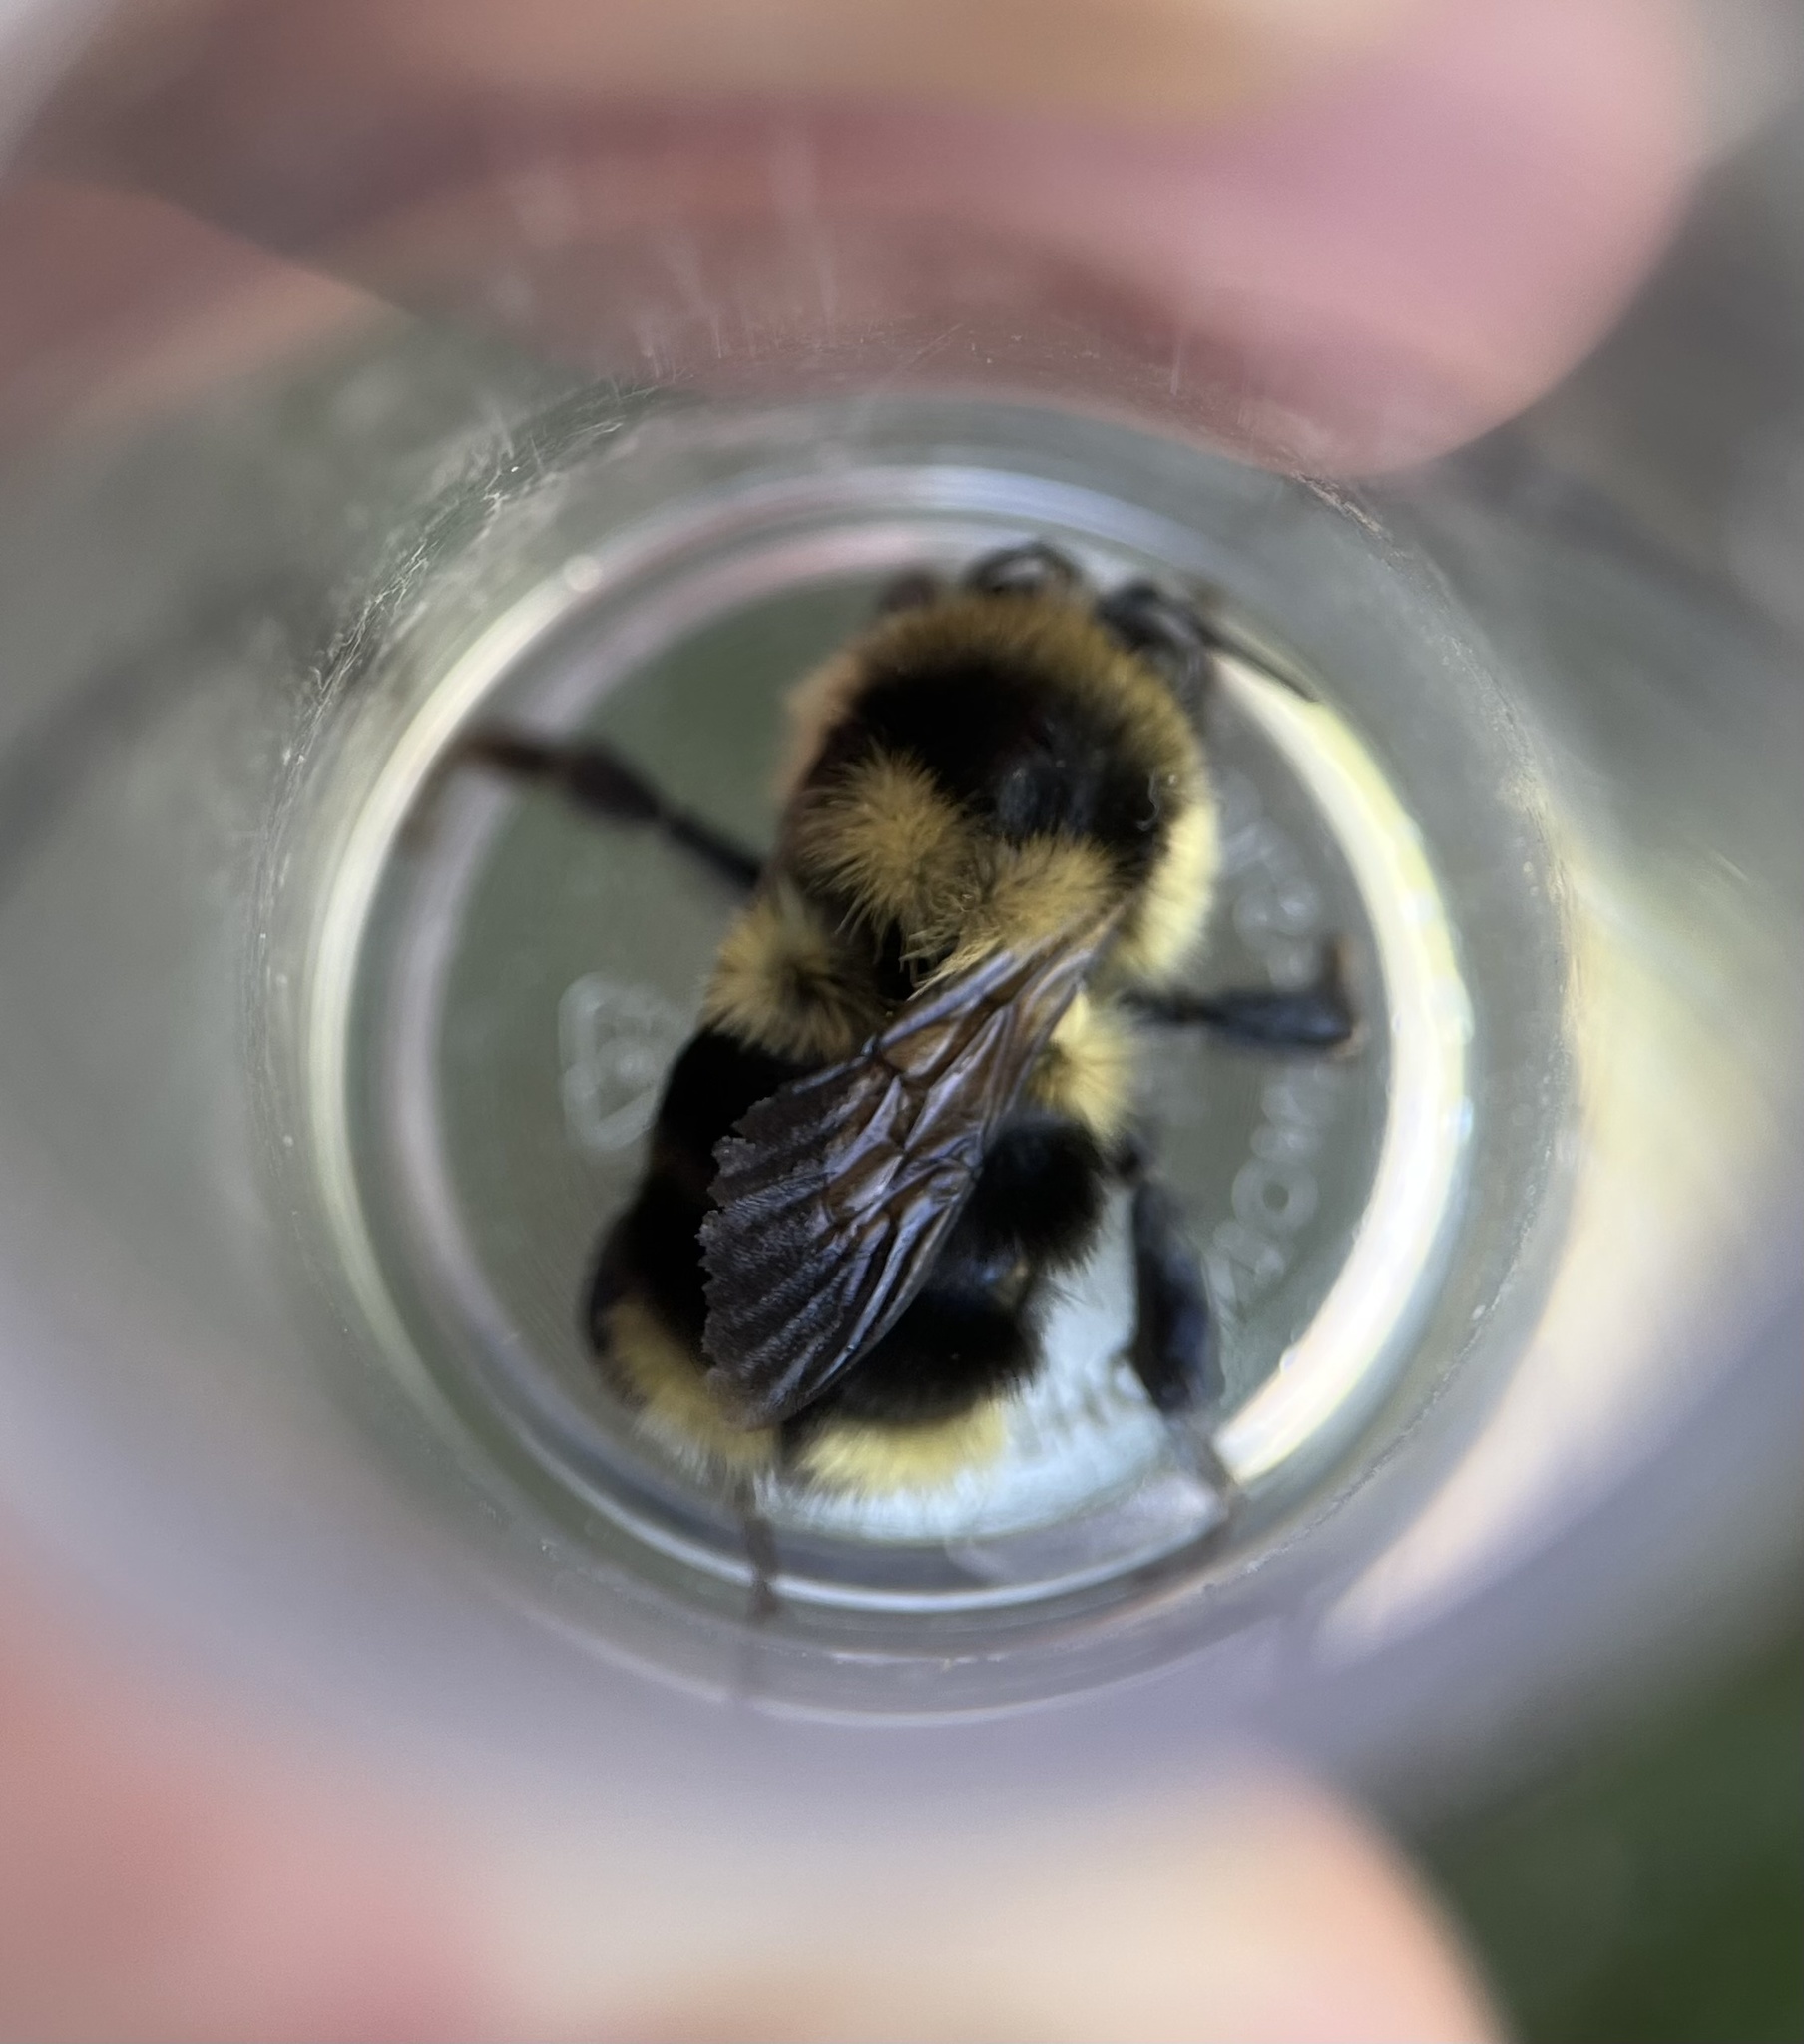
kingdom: Animalia
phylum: Arthropoda
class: Insecta
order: Hymenoptera
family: Apidae
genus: Bombus
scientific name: Bombus melanopygus
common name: Black tail bumble bee
